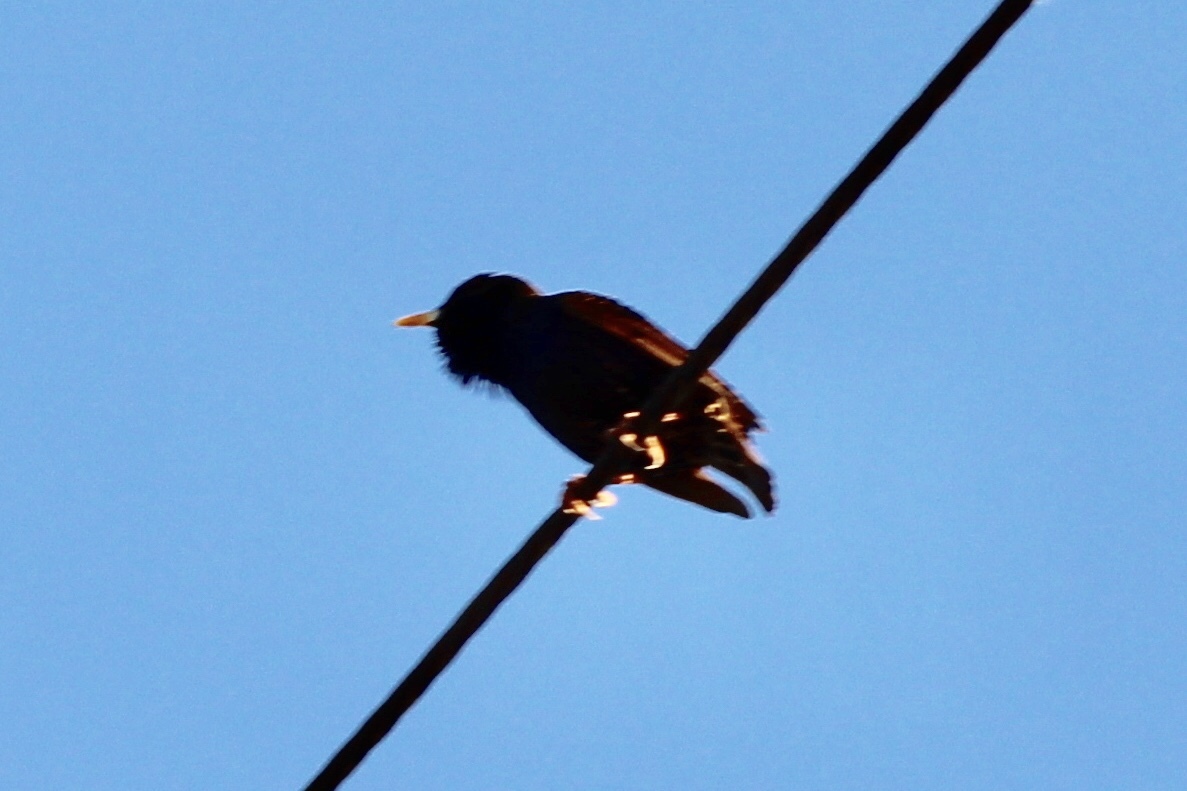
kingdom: Animalia
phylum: Chordata
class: Aves
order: Passeriformes
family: Sturnidae
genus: Sturnus
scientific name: Sturnus vulgaris
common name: Common starling
